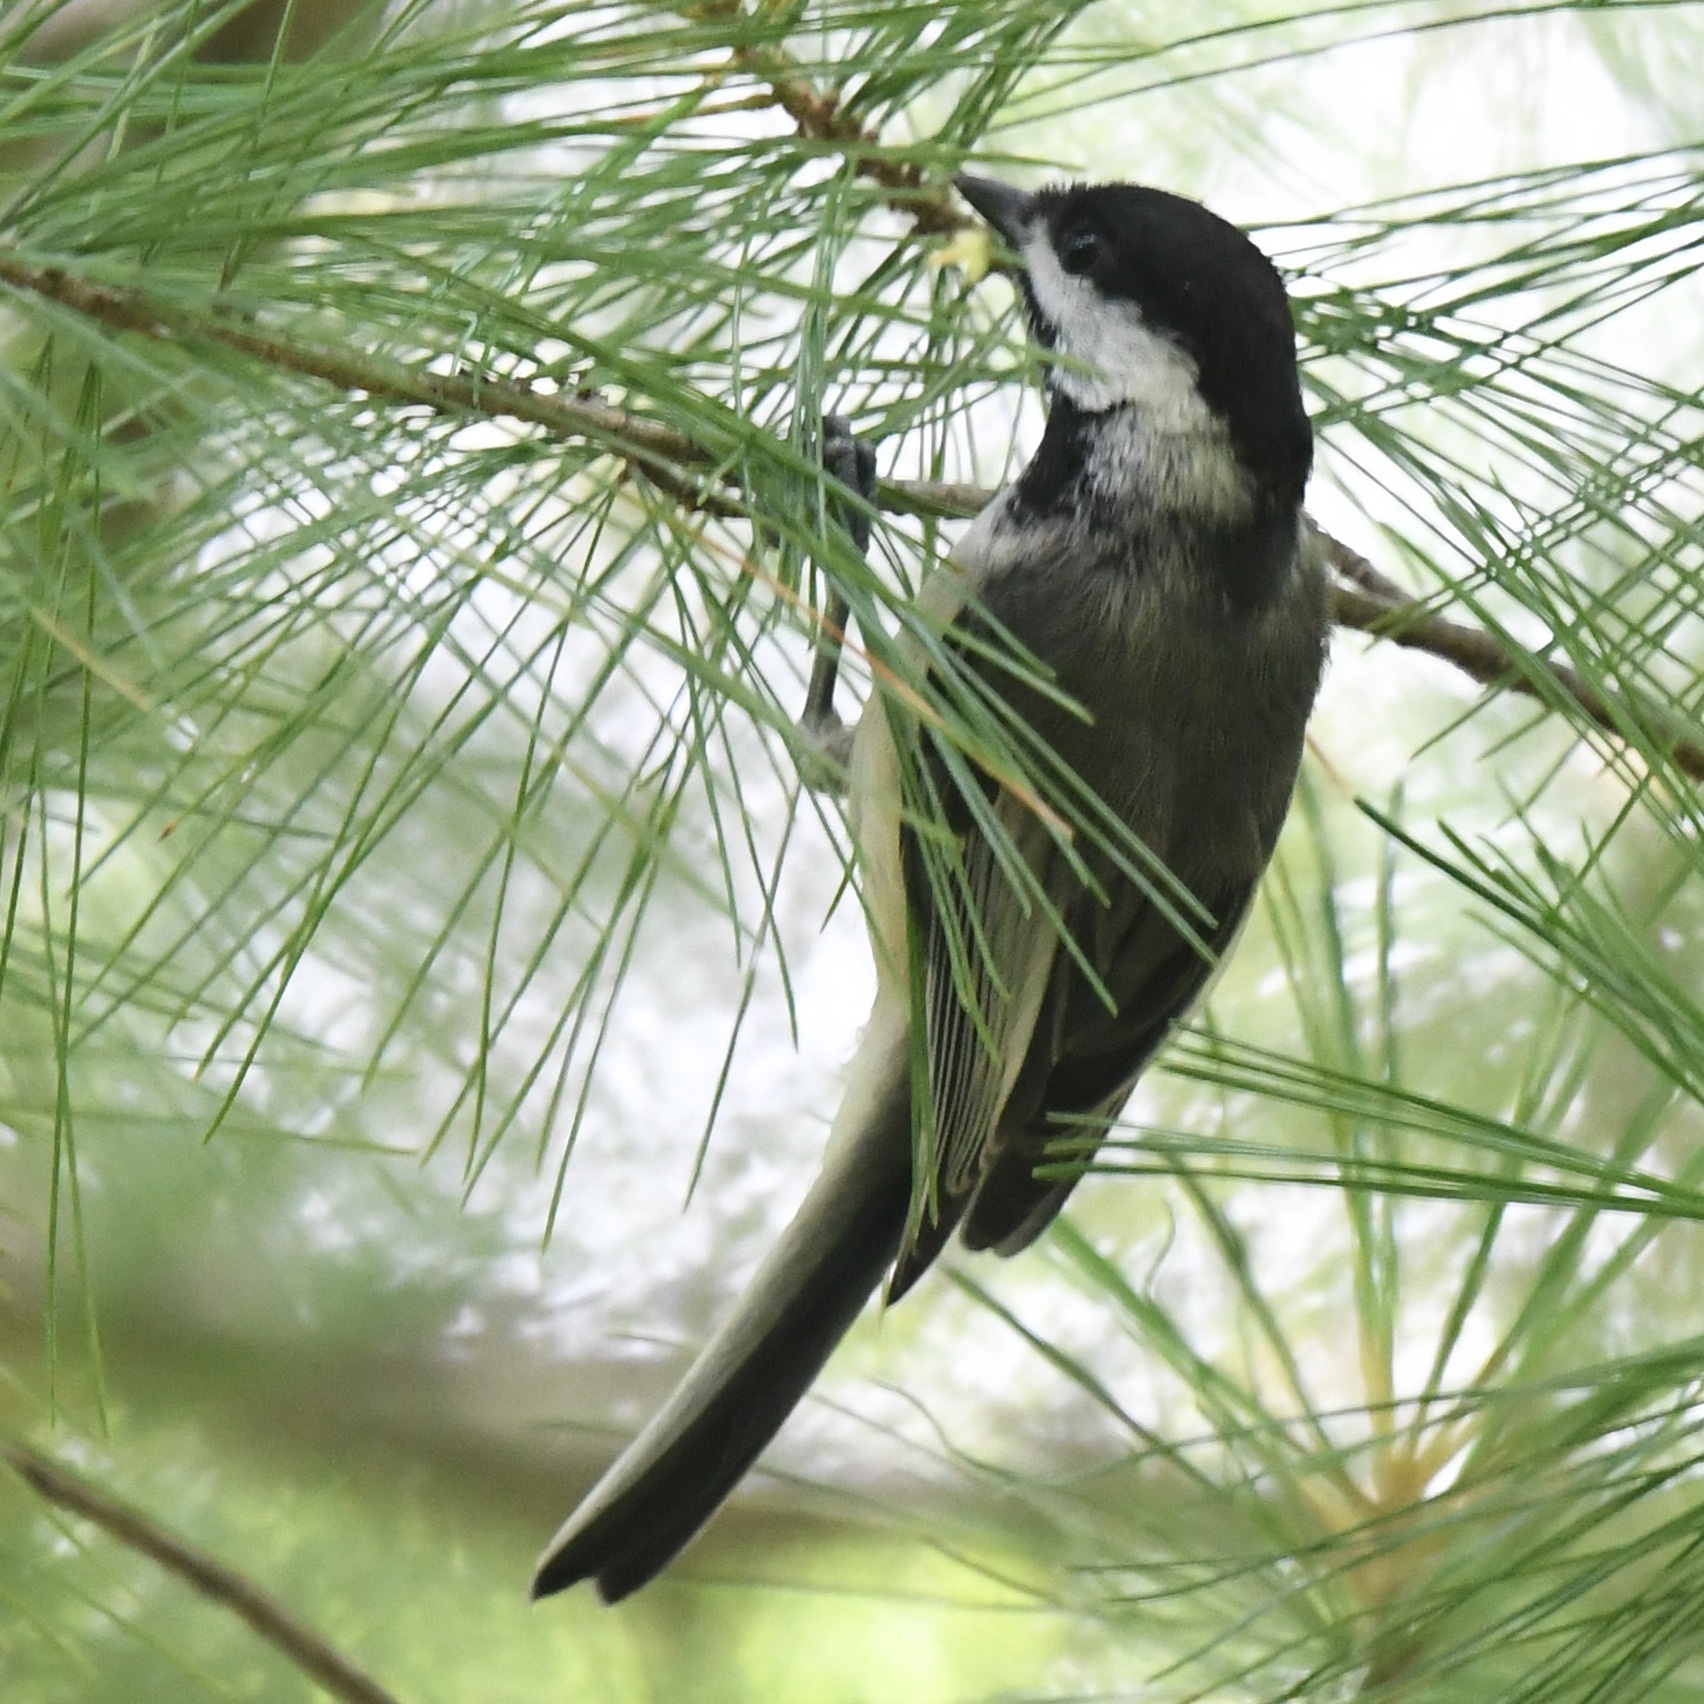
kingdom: Animalia
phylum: Chordata
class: Aves
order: Passeriformes
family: Paridae
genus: Poecile
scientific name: Poecile atricapillus
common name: Black-capped chickadee
